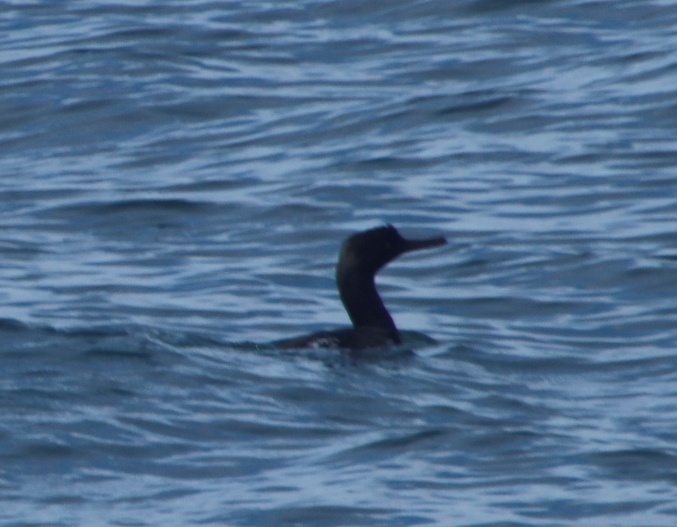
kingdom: Animalia
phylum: Chordata
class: Aves
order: Suliformes
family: Phalacrocoracidae
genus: Phalacrocorax
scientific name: Phalacrocorax neglectus
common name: Bank cormorant
